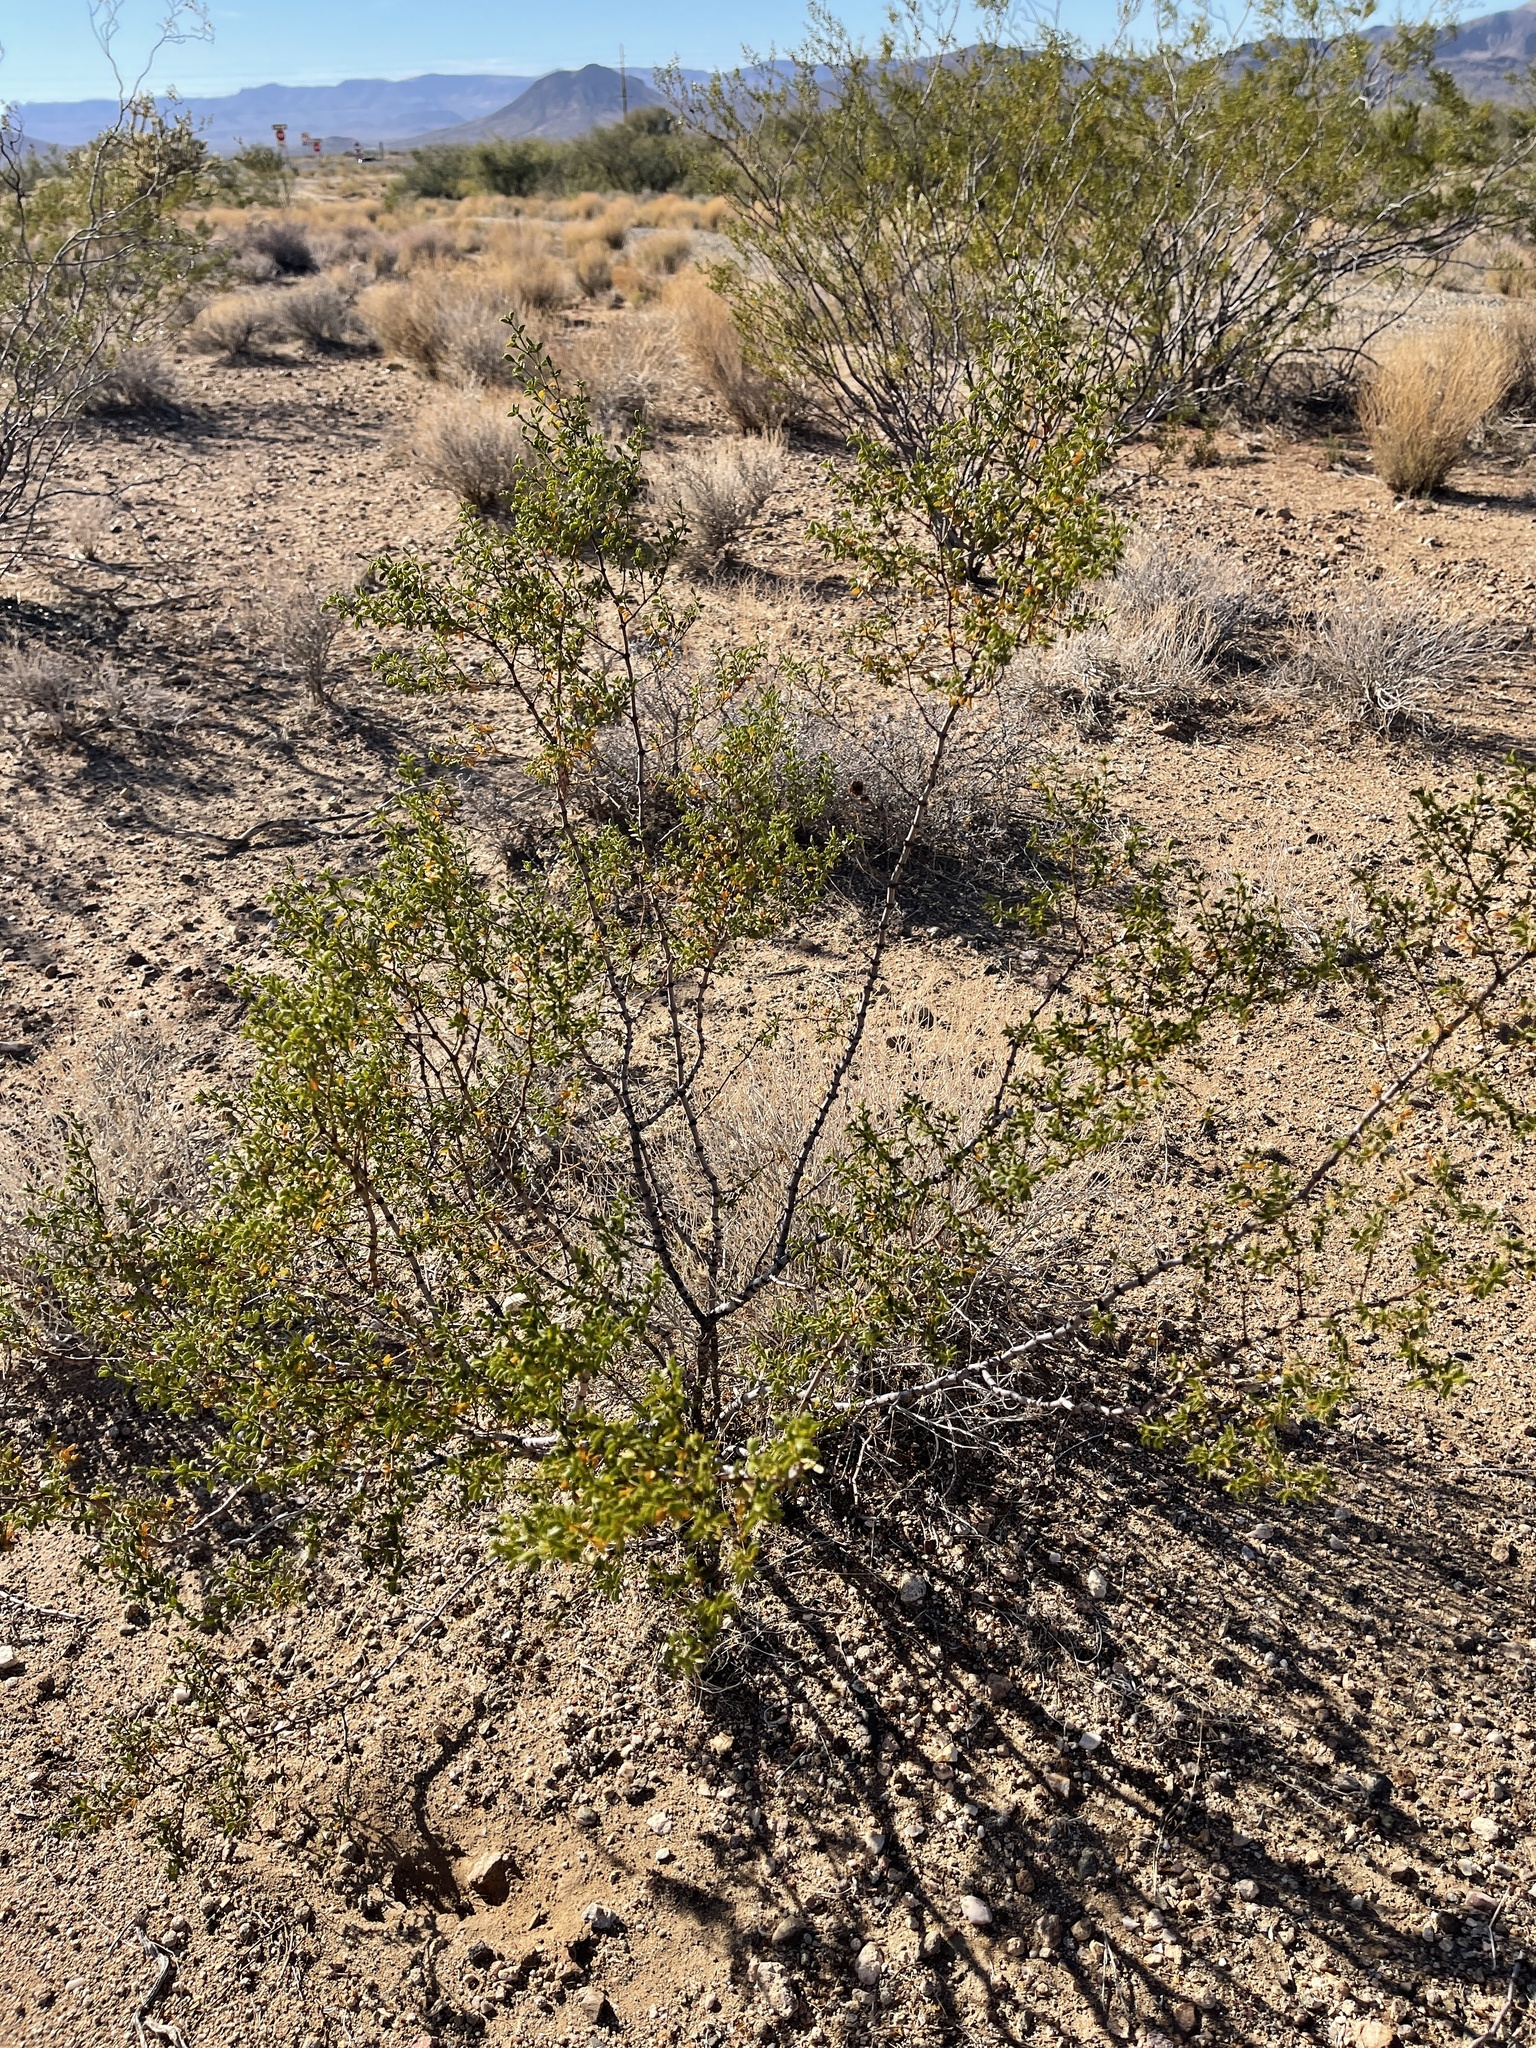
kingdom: Plantae
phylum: Tracheophyta
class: Magnoliopsida
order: Zygophyllales
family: Zygophyllaceae
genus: Larrea
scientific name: Larrea tridentata
